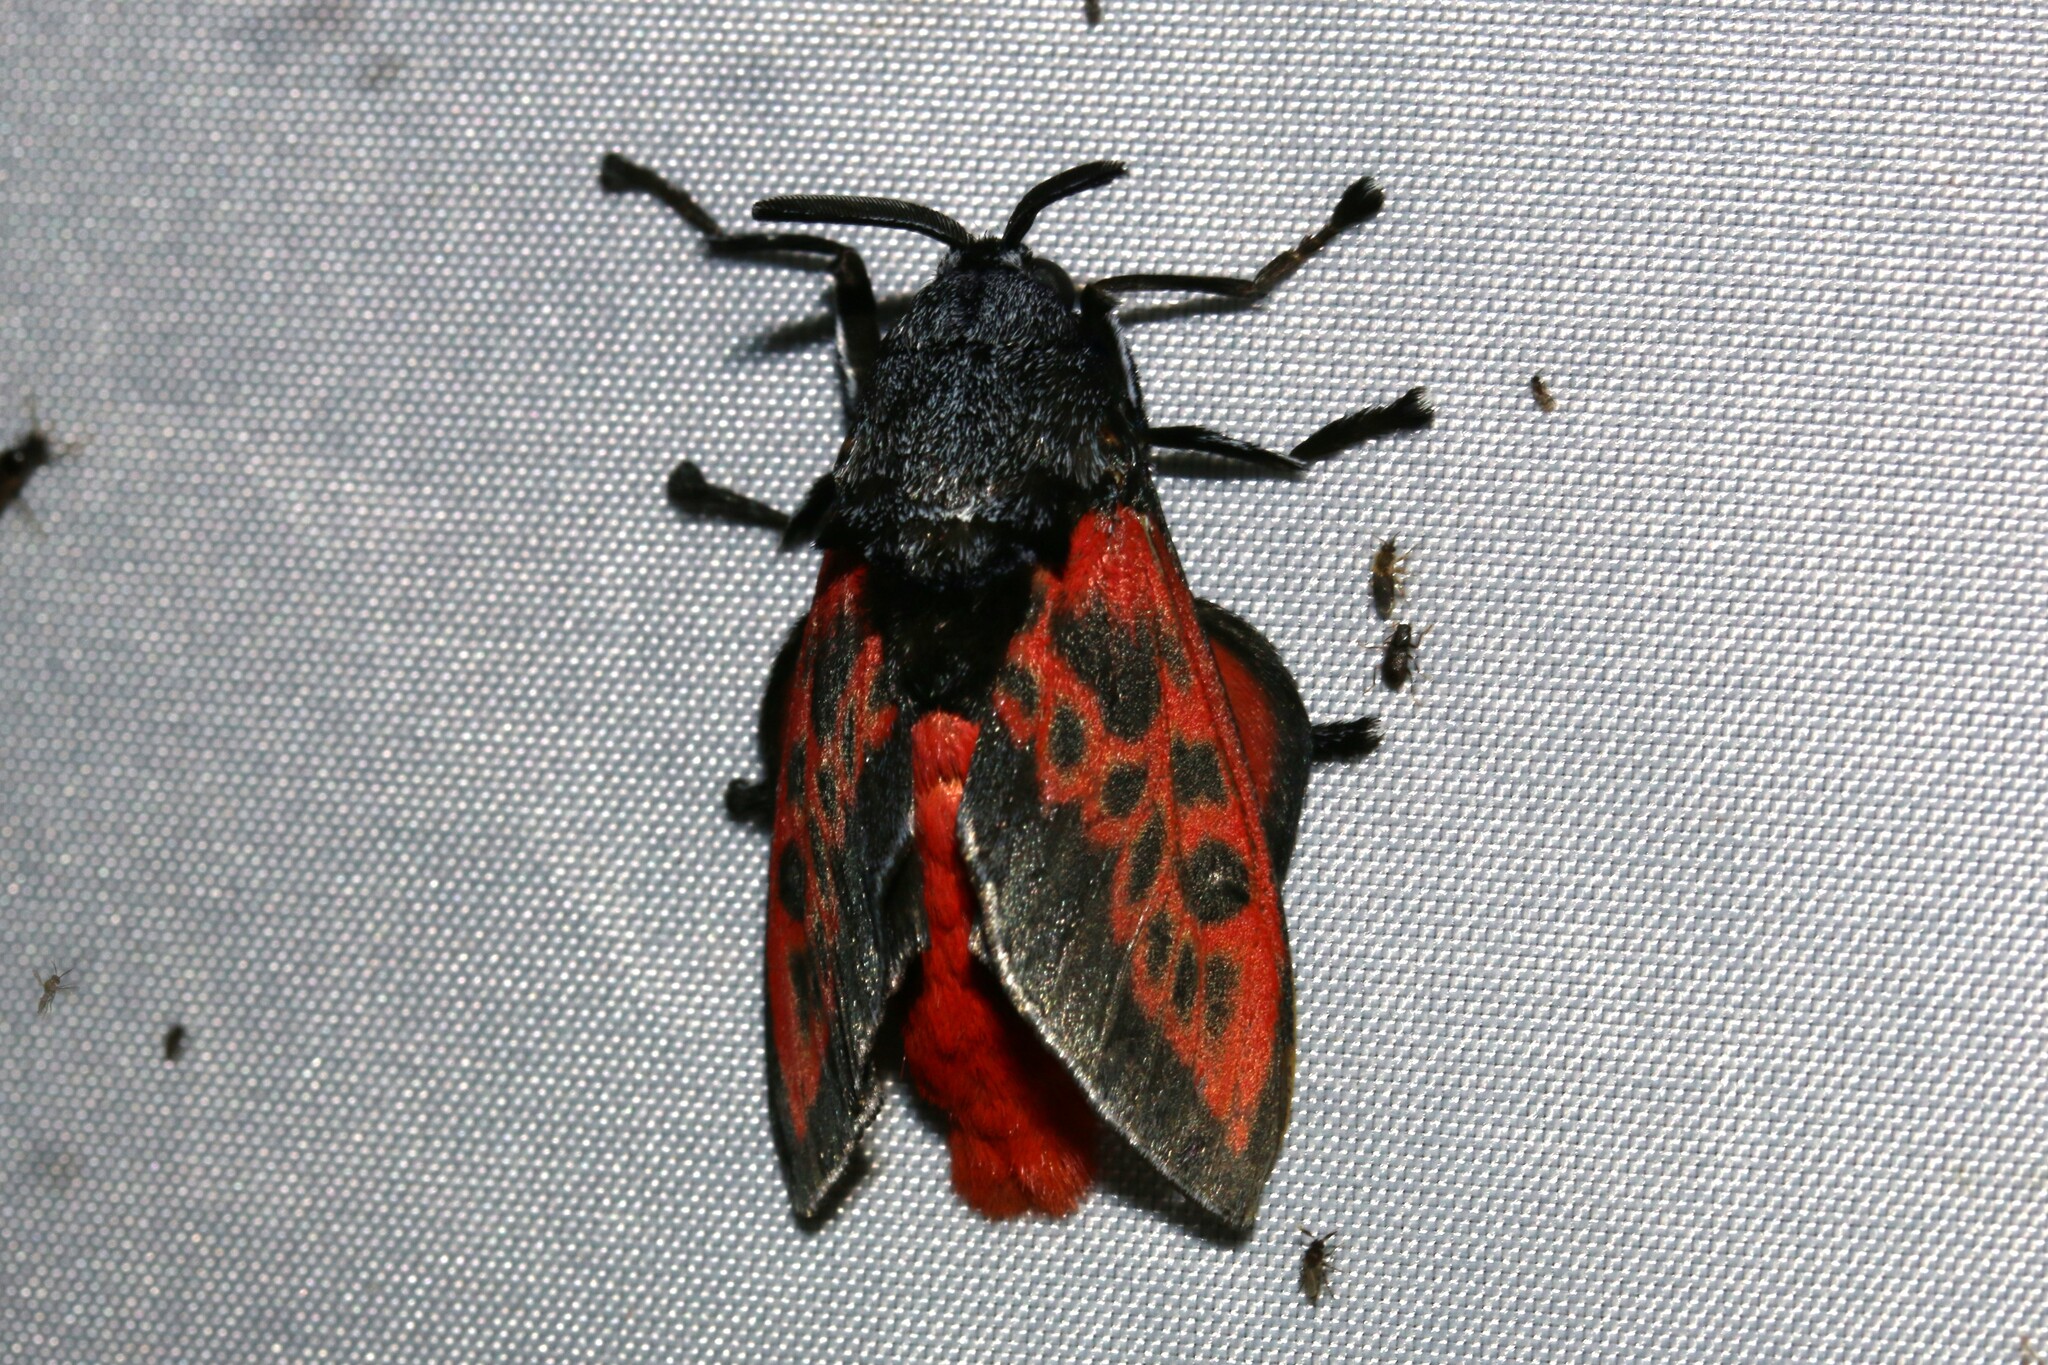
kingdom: Animalia
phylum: Arthropoda
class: Insecta
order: Lepidoptera
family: Megalopygidae
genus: Langucys
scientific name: Langucys bicolor
